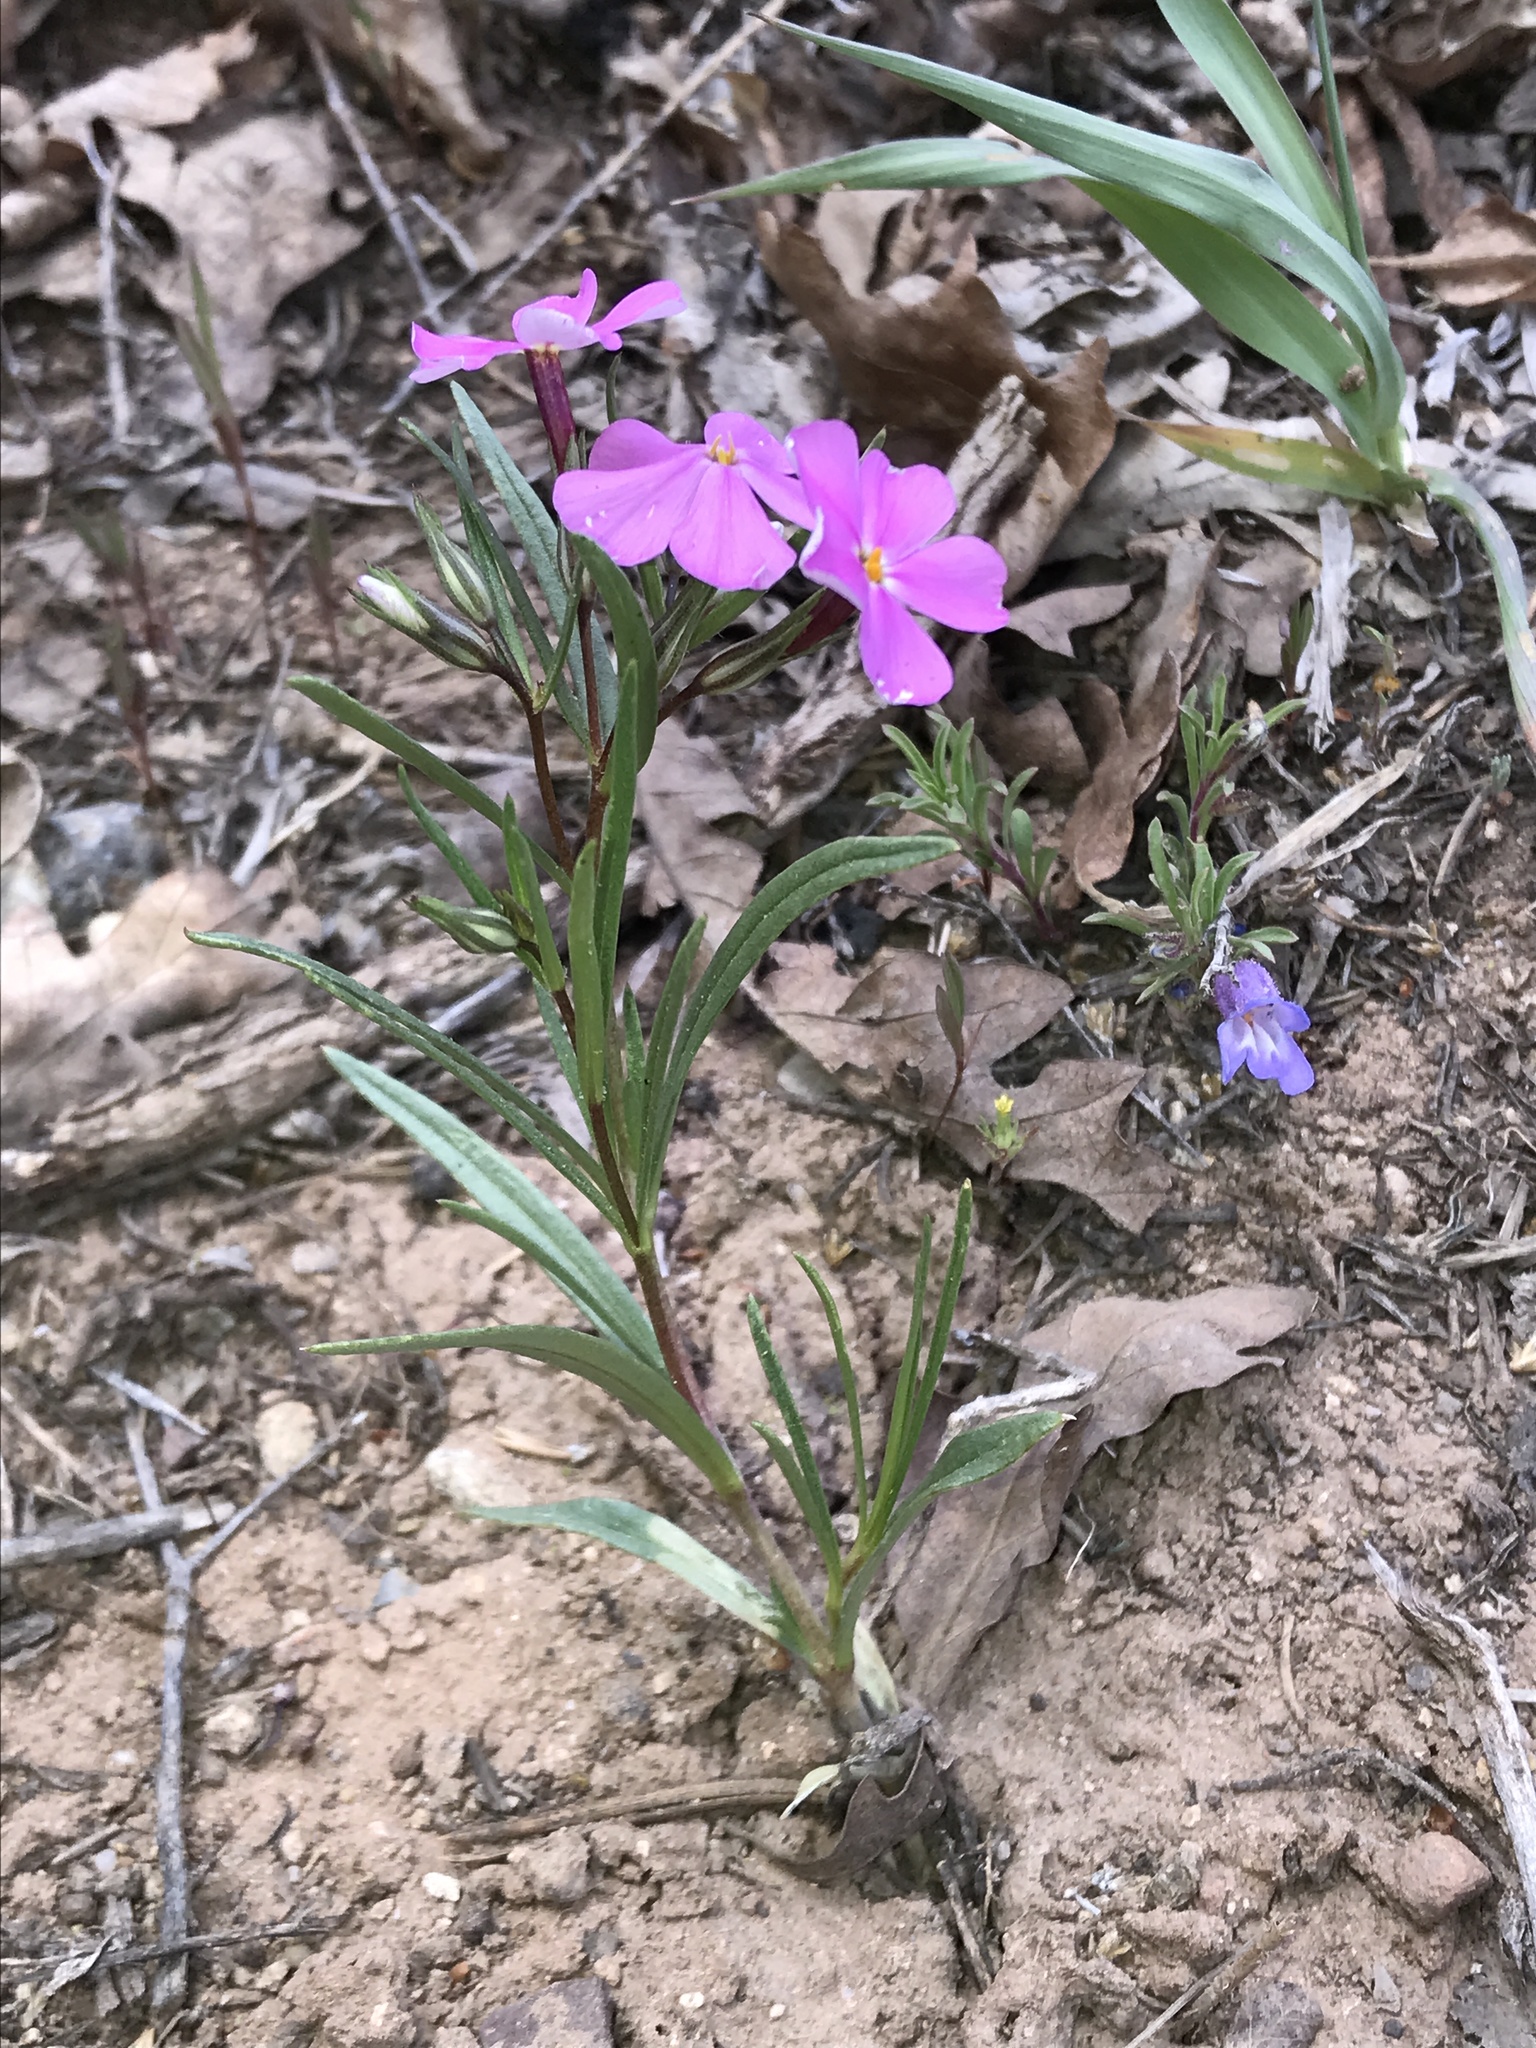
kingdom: Plantae
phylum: Tracheophyta
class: Magnoliopsida
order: Ericales
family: Polemoniaceae
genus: Phlox
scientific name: Phlox longifolia
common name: Longleaf phlox
